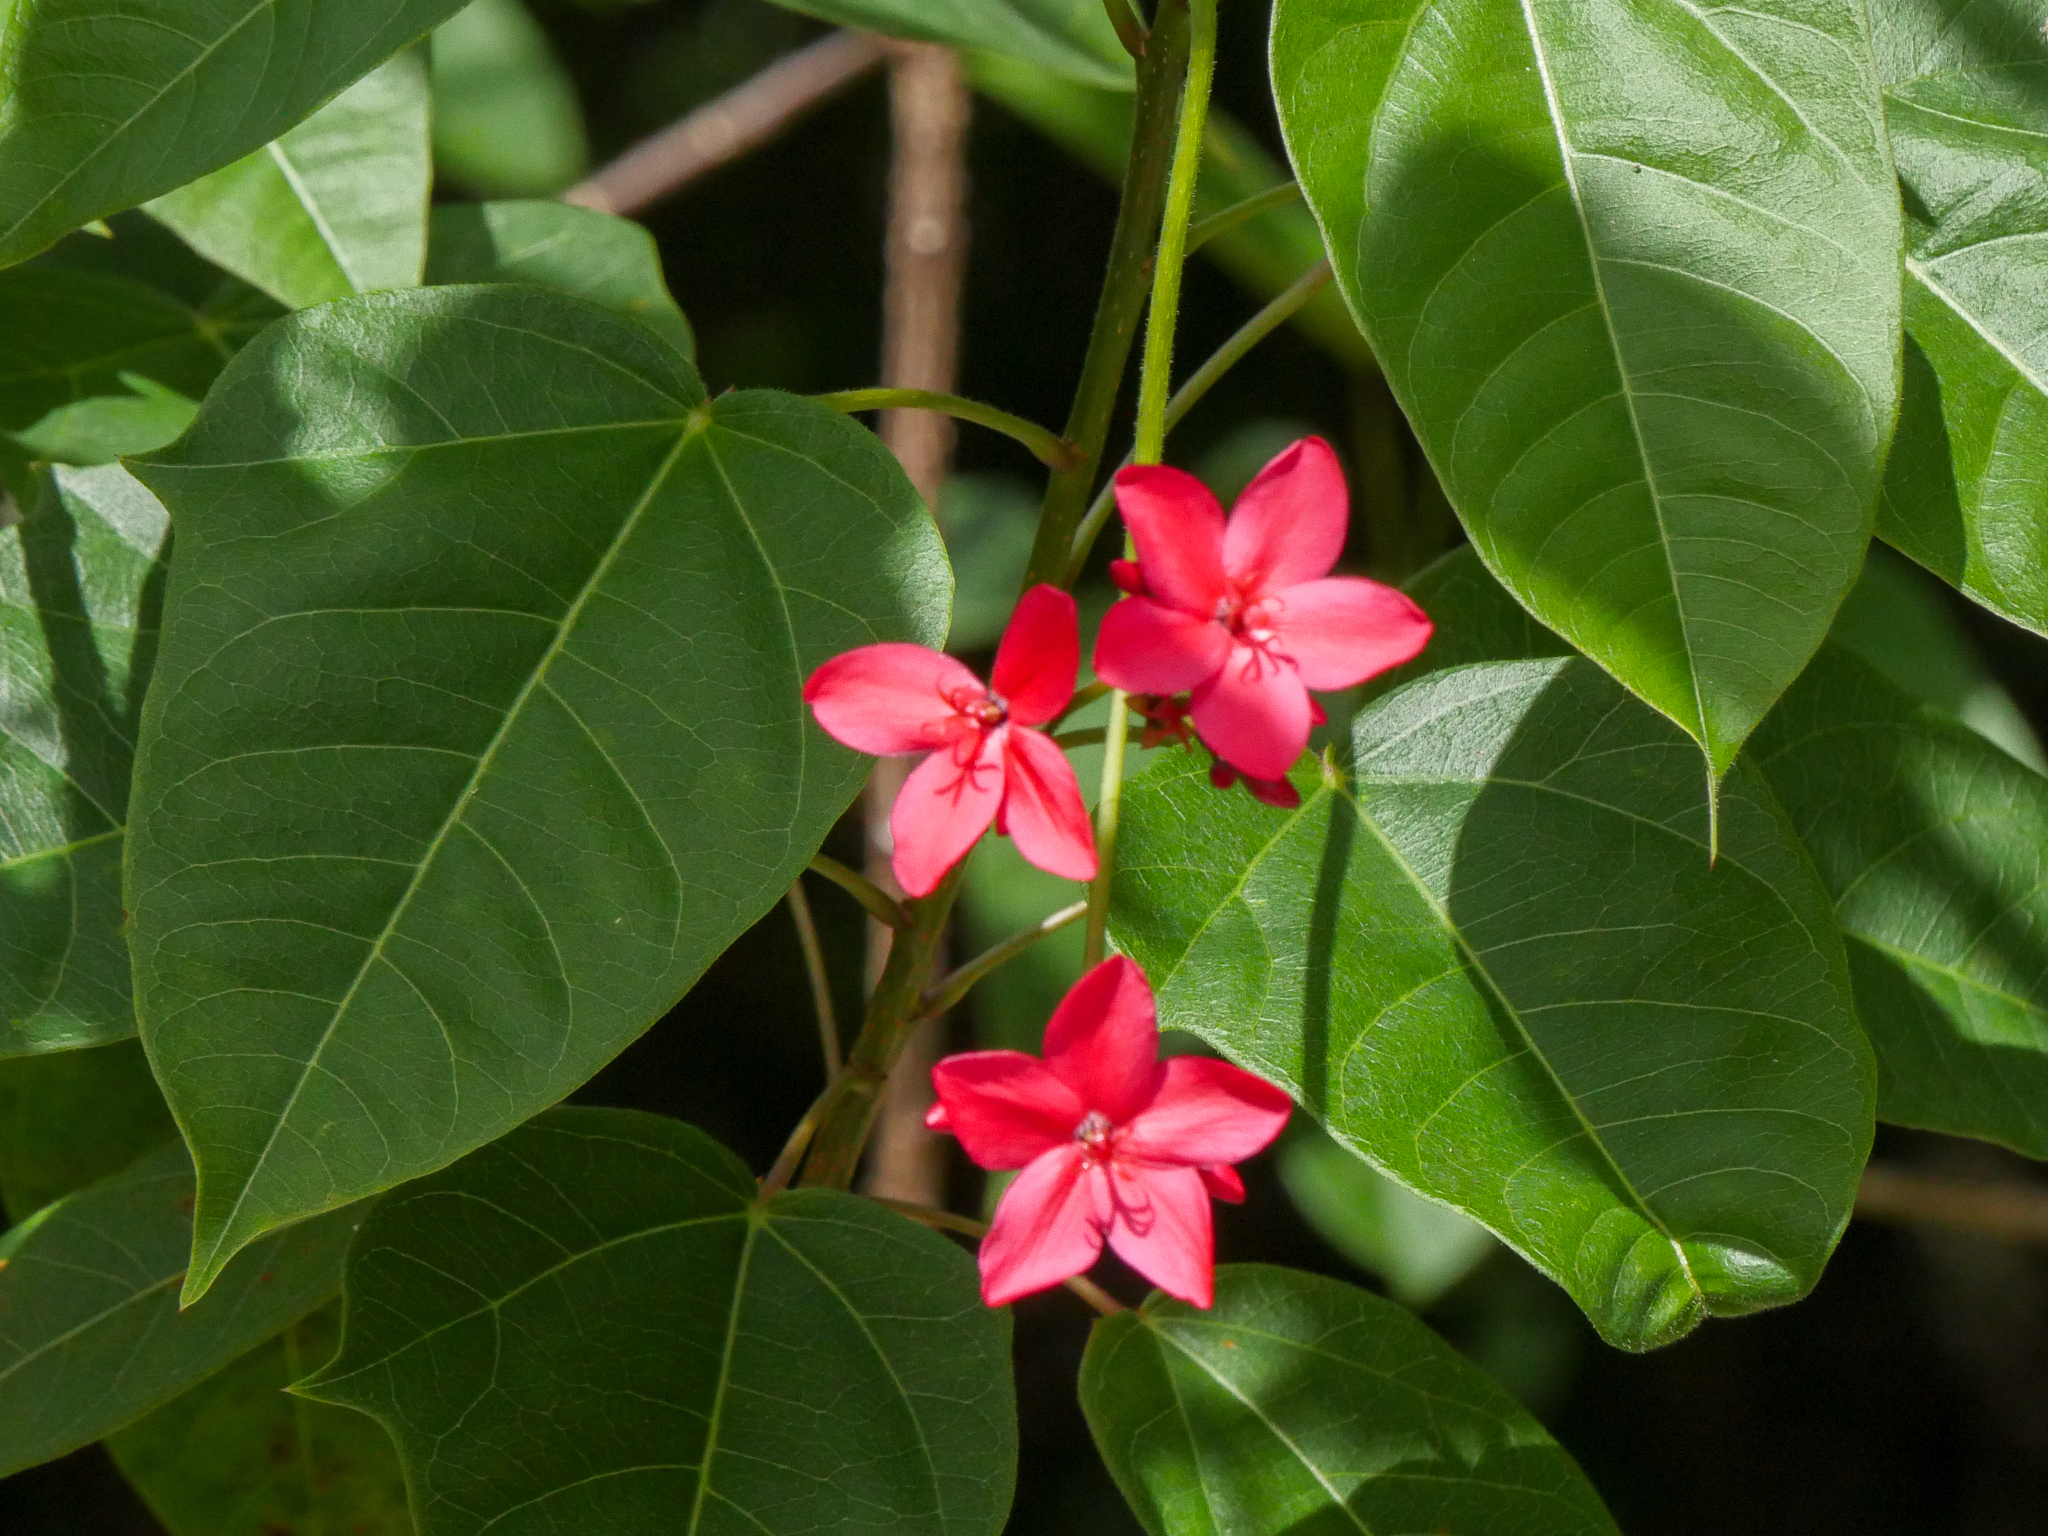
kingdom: Plantae
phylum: Tracheophyta
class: Magnoliopsida
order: Malpighiales
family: Euphorbiaceae
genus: Jatropha
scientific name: Jatropha integerrima
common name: Peregrina
